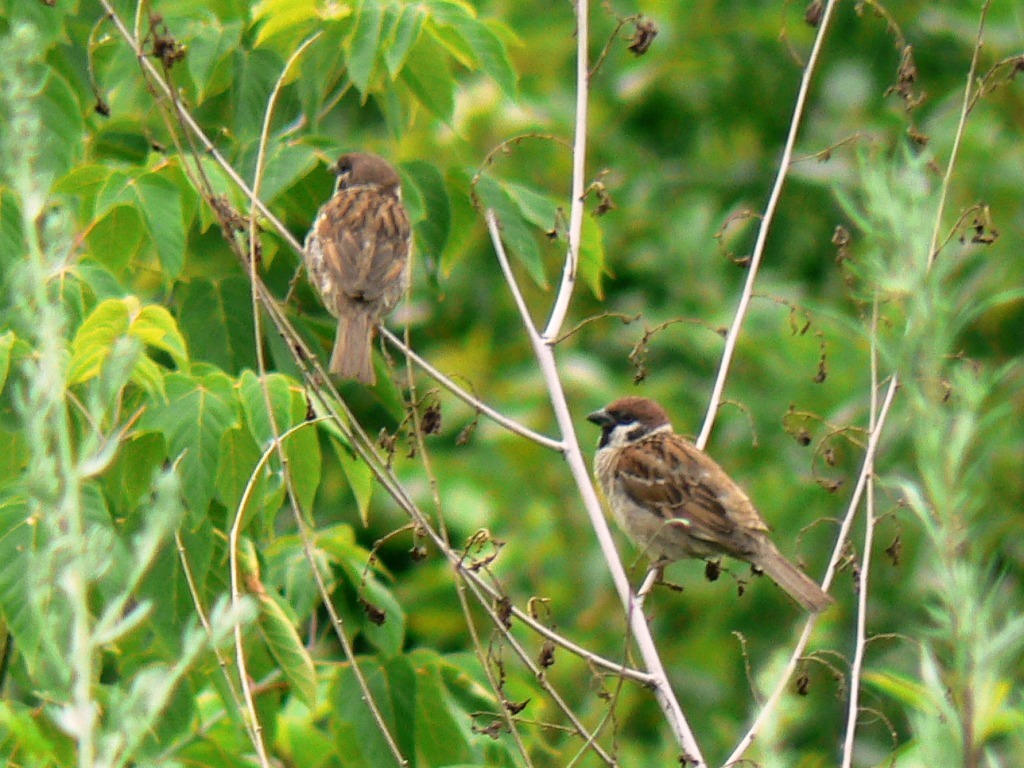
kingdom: Animalia
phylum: Chordata
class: Aves
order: Passeriformes
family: Passeridae
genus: Passer
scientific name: Passer montanus
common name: Eurasian tree sparrow
